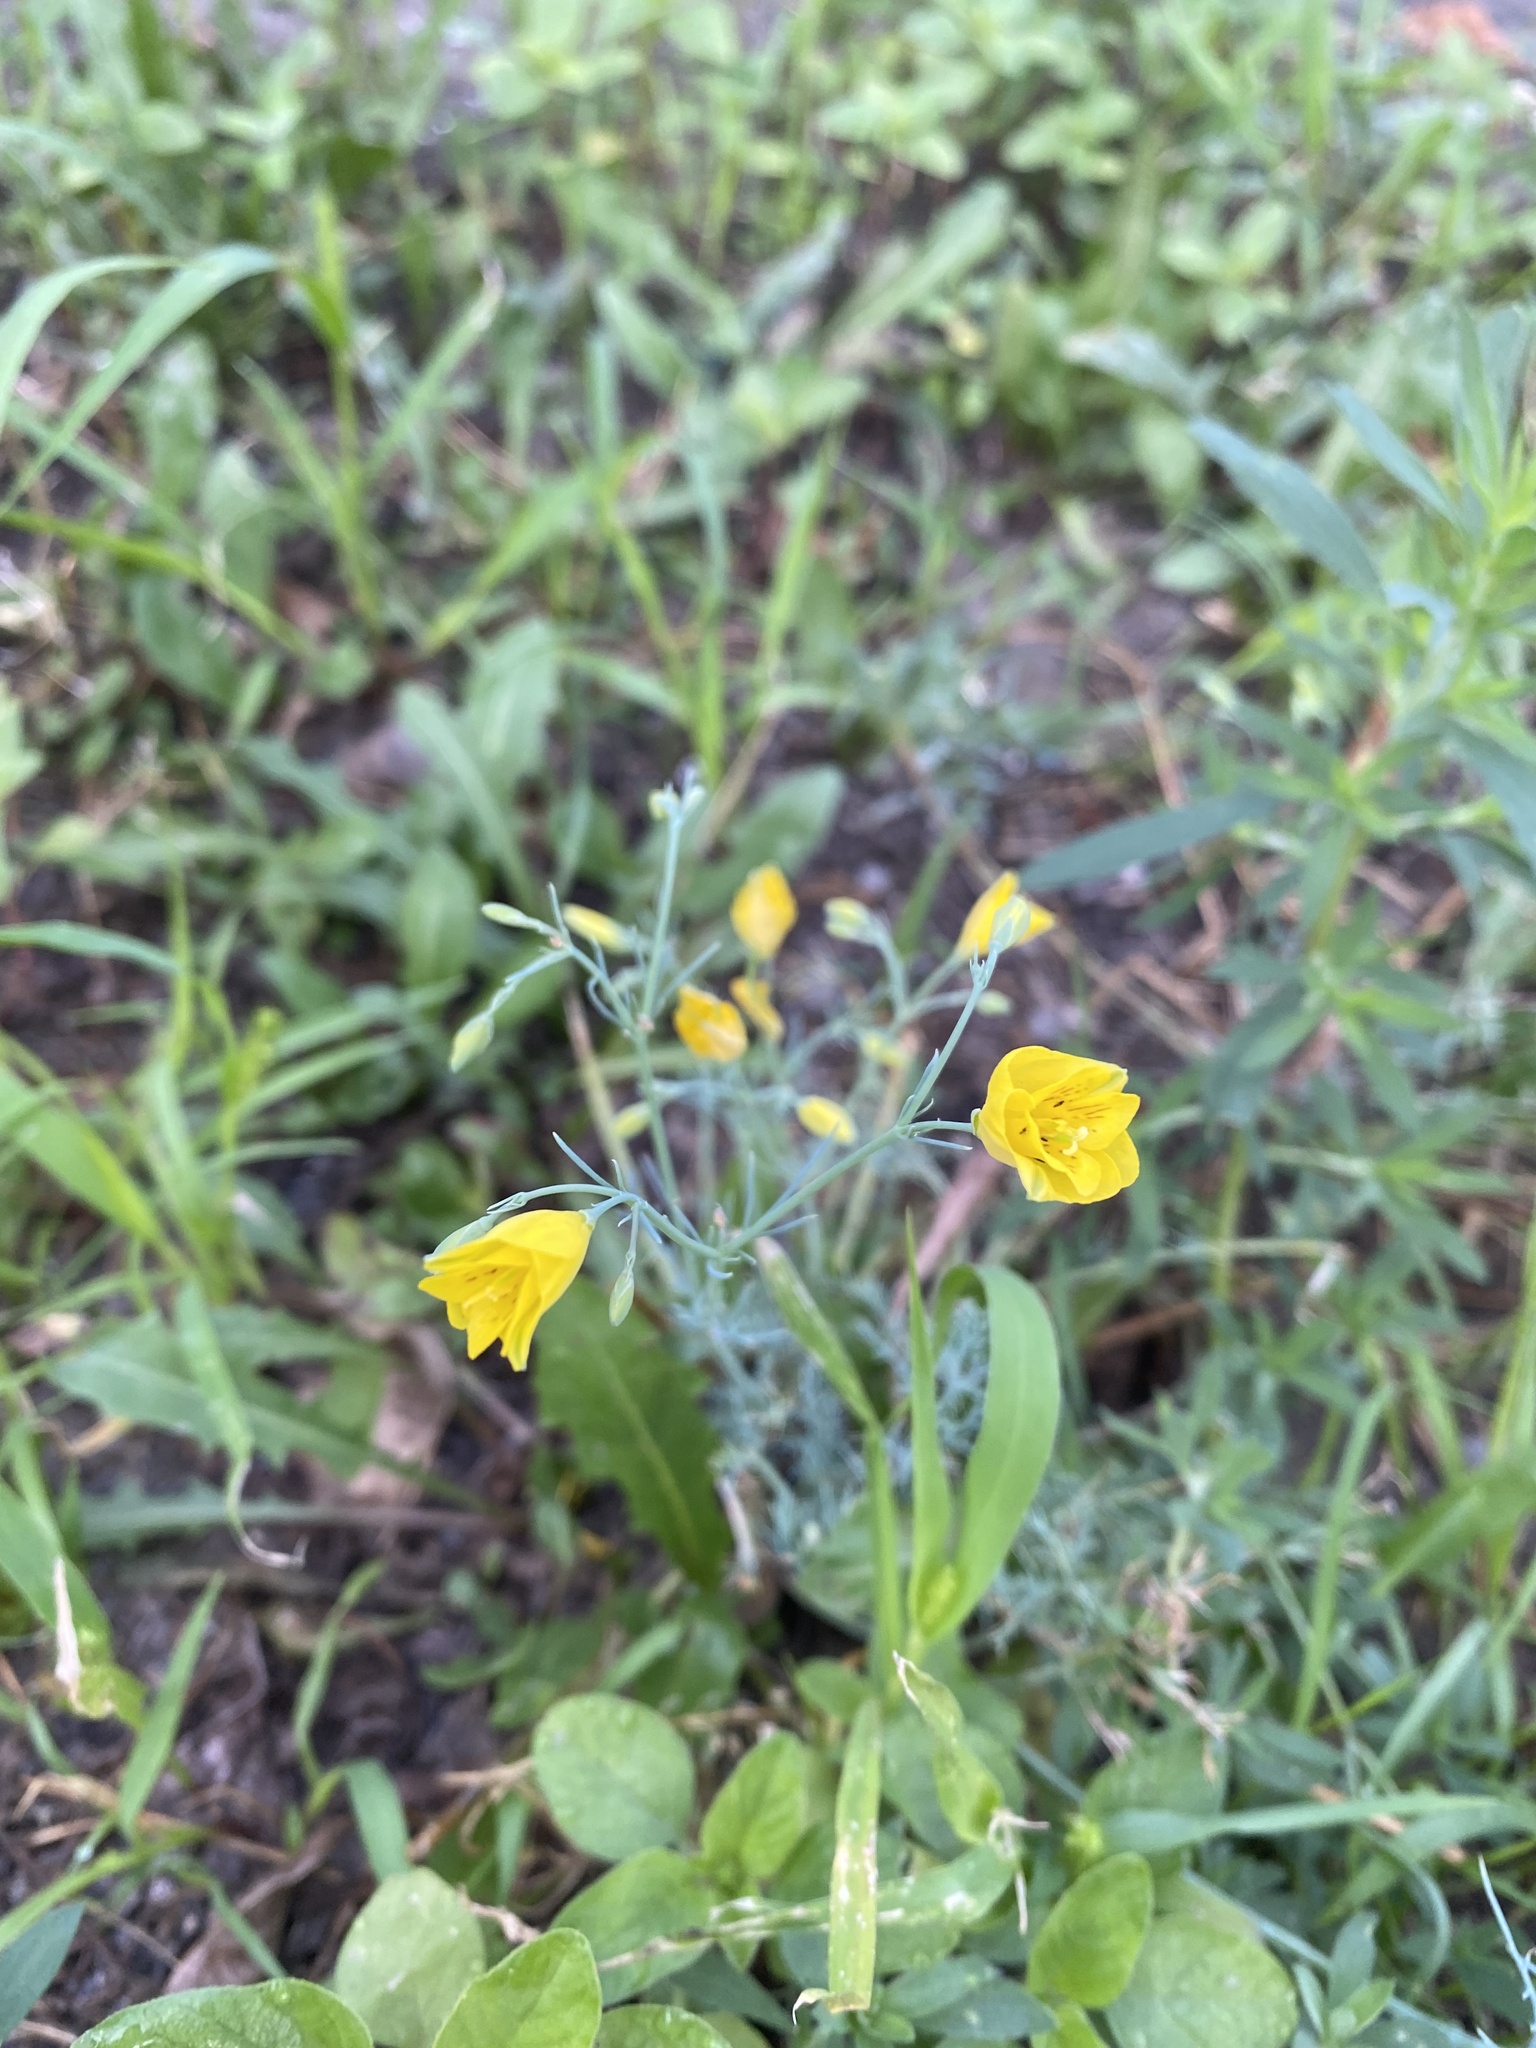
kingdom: Plantae
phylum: Tracheophyta
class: Magnoliopsida
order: Ranunculales
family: Papaveraceae
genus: Hypecoum
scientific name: Hypecoum erectum
